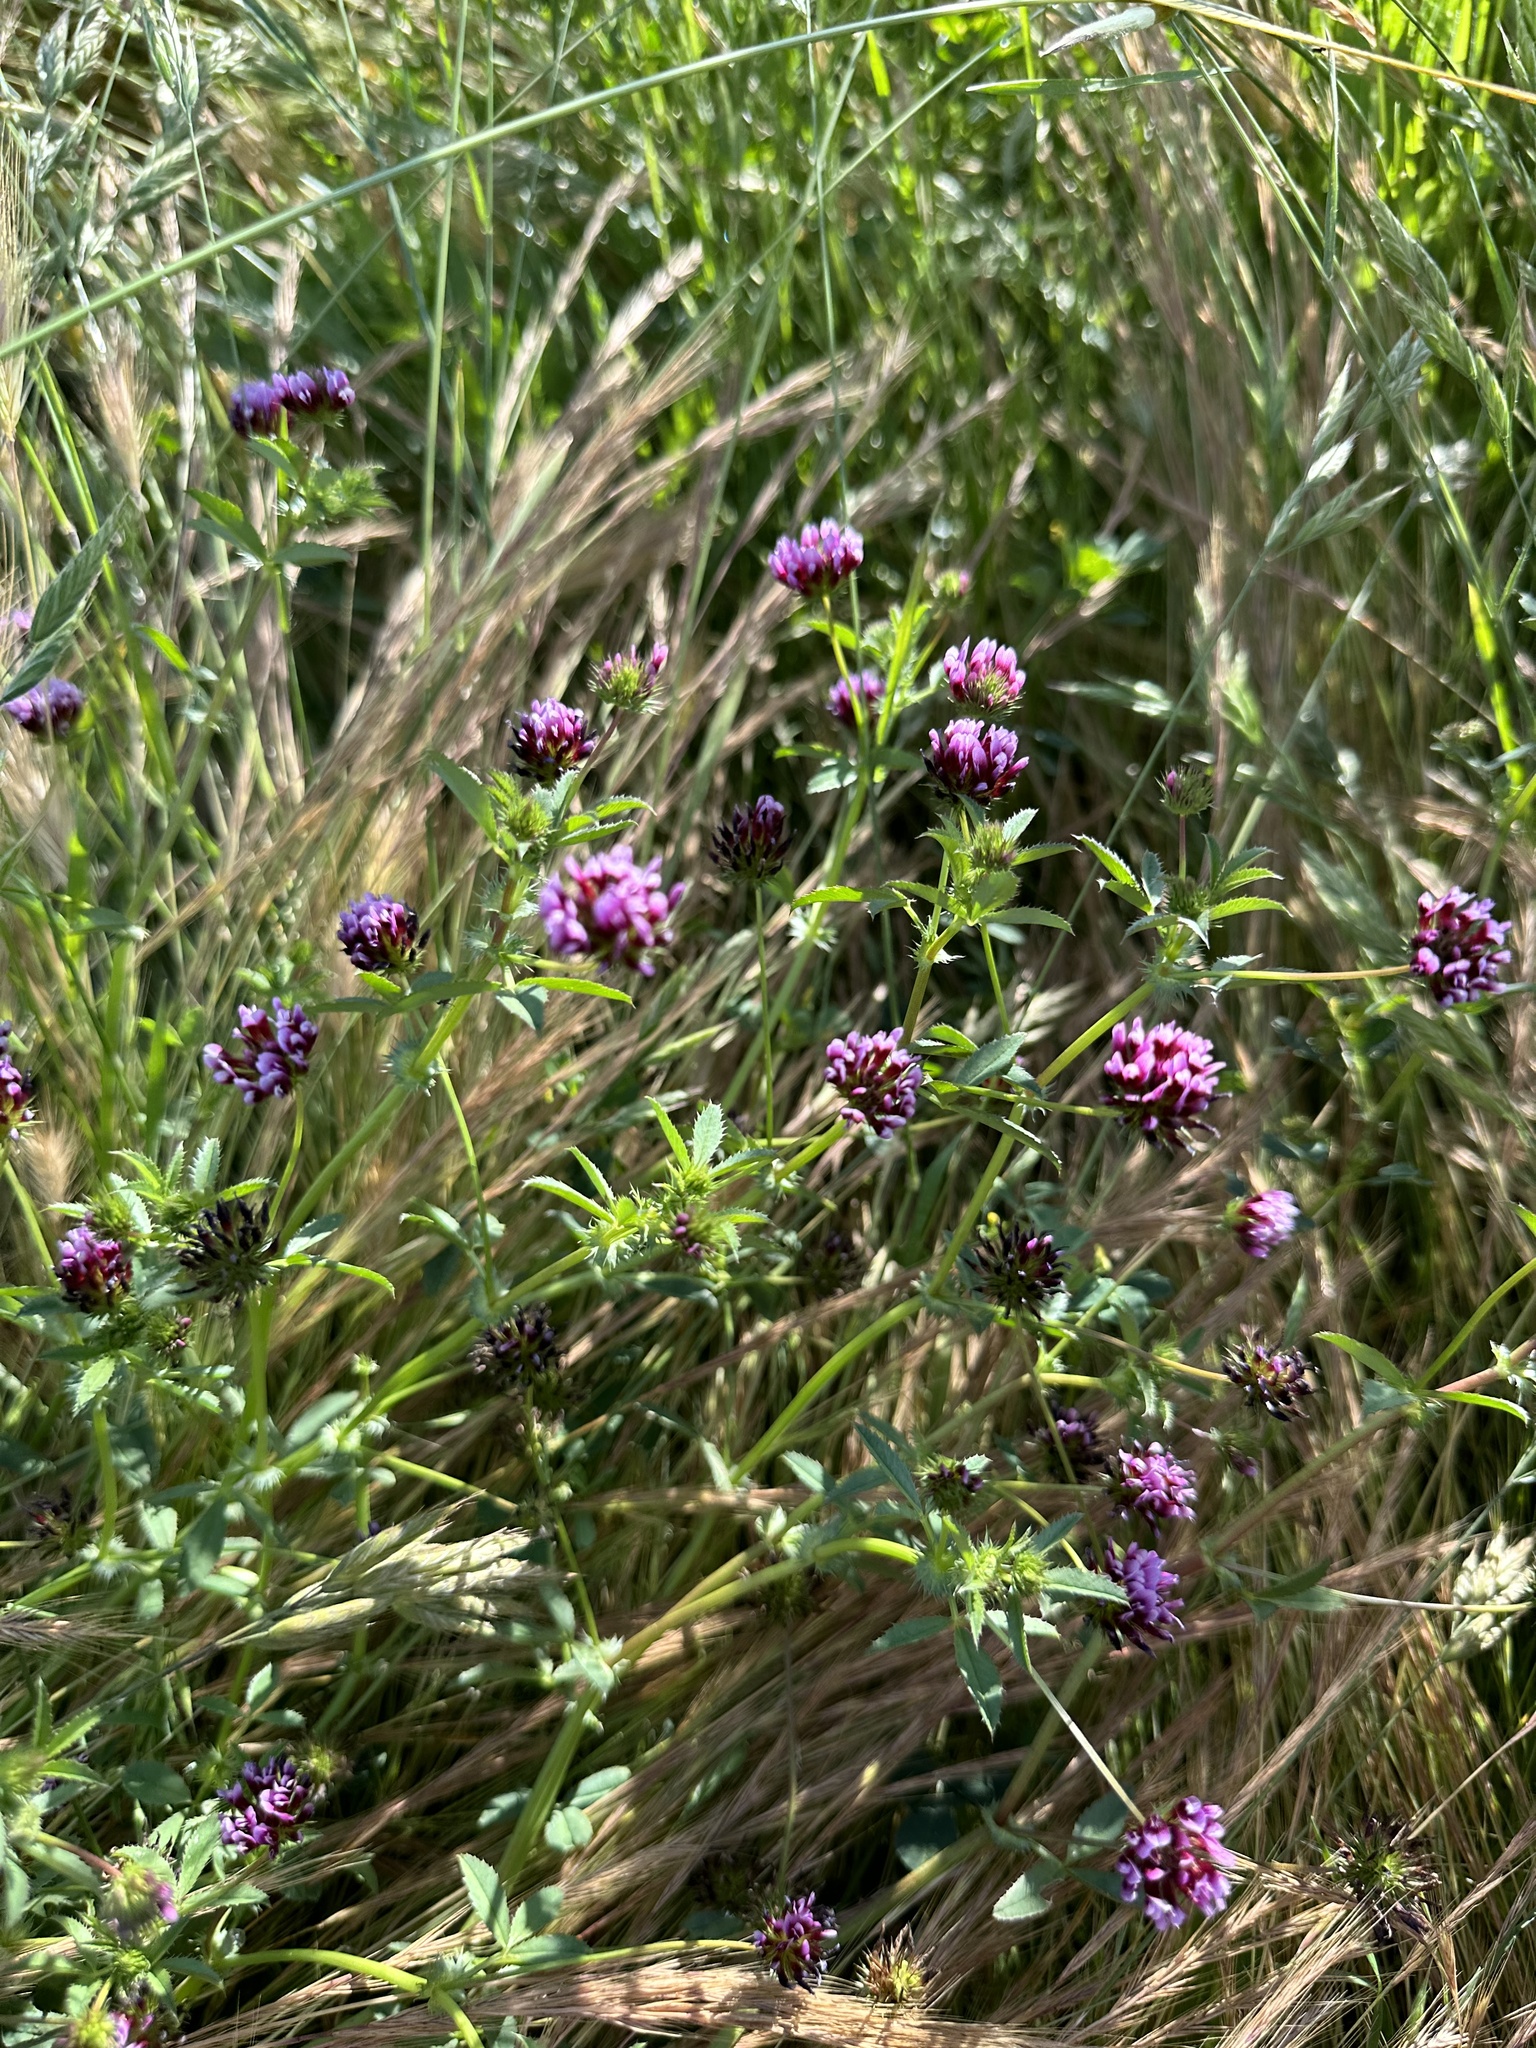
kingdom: Plantae
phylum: Tracheophyta
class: Magnoliopsida
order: Fabales
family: Fabaceae
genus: Trifolium
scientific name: Trifolium variegatum
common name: Whitetip clover
